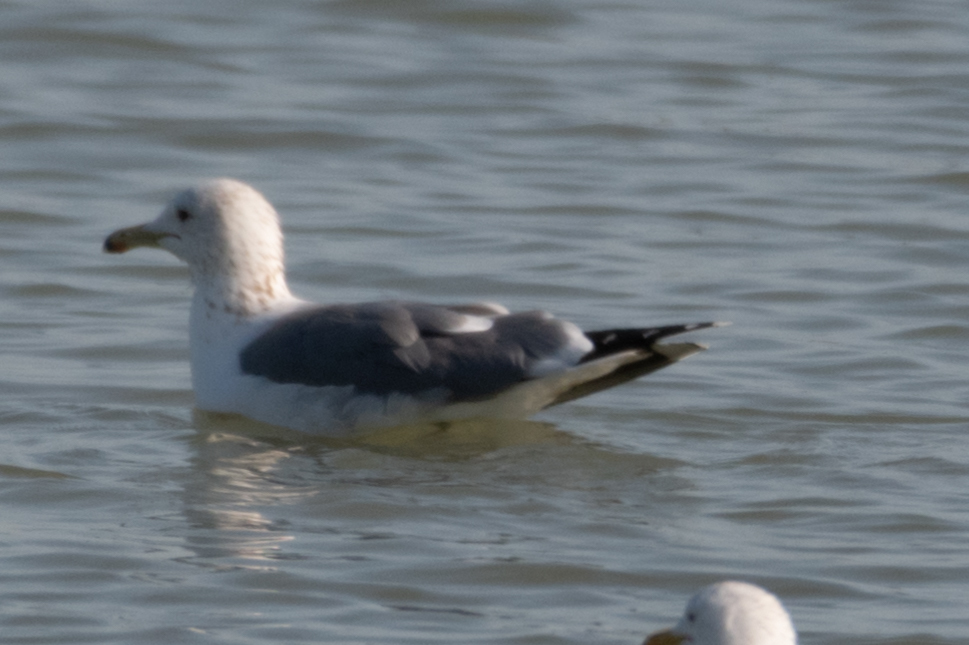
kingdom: Animalia
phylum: Chordata
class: Aves
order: Charadriiformes
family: Laridae
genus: Larus
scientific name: Larus californicus
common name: California gull
